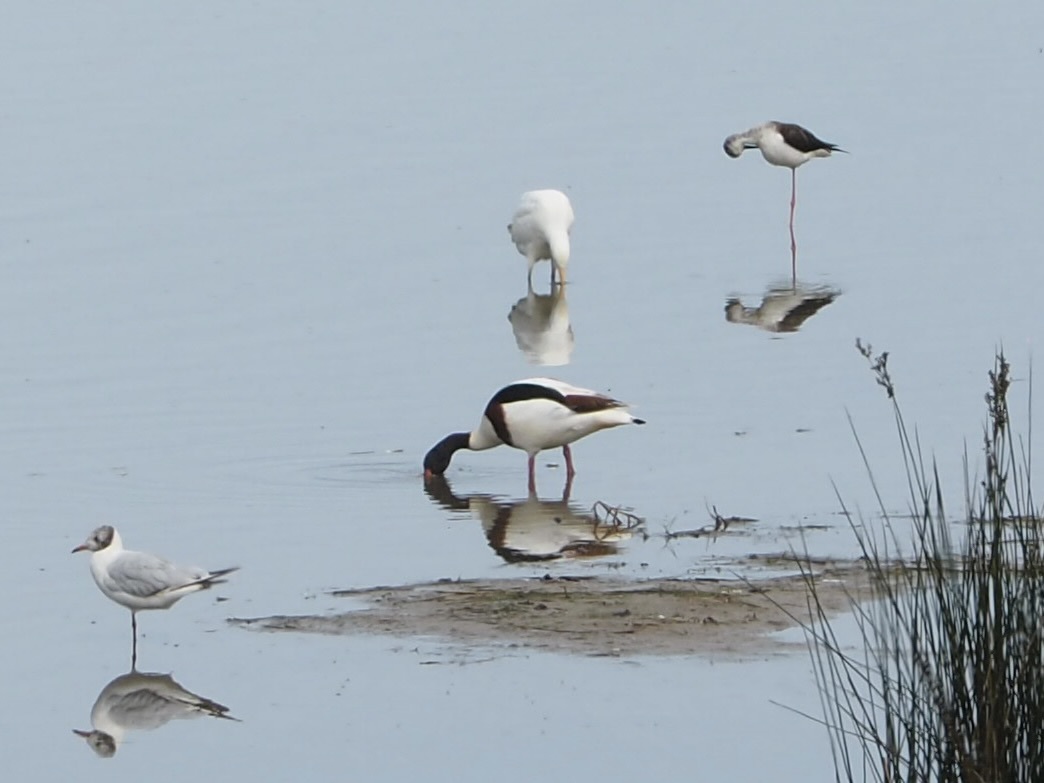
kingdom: Animalia
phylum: Chordata
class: Aves
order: Charadriiformes
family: Recurvirostridae
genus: Himantopus
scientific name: Himantopus himantopus
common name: Black-winged stilt
